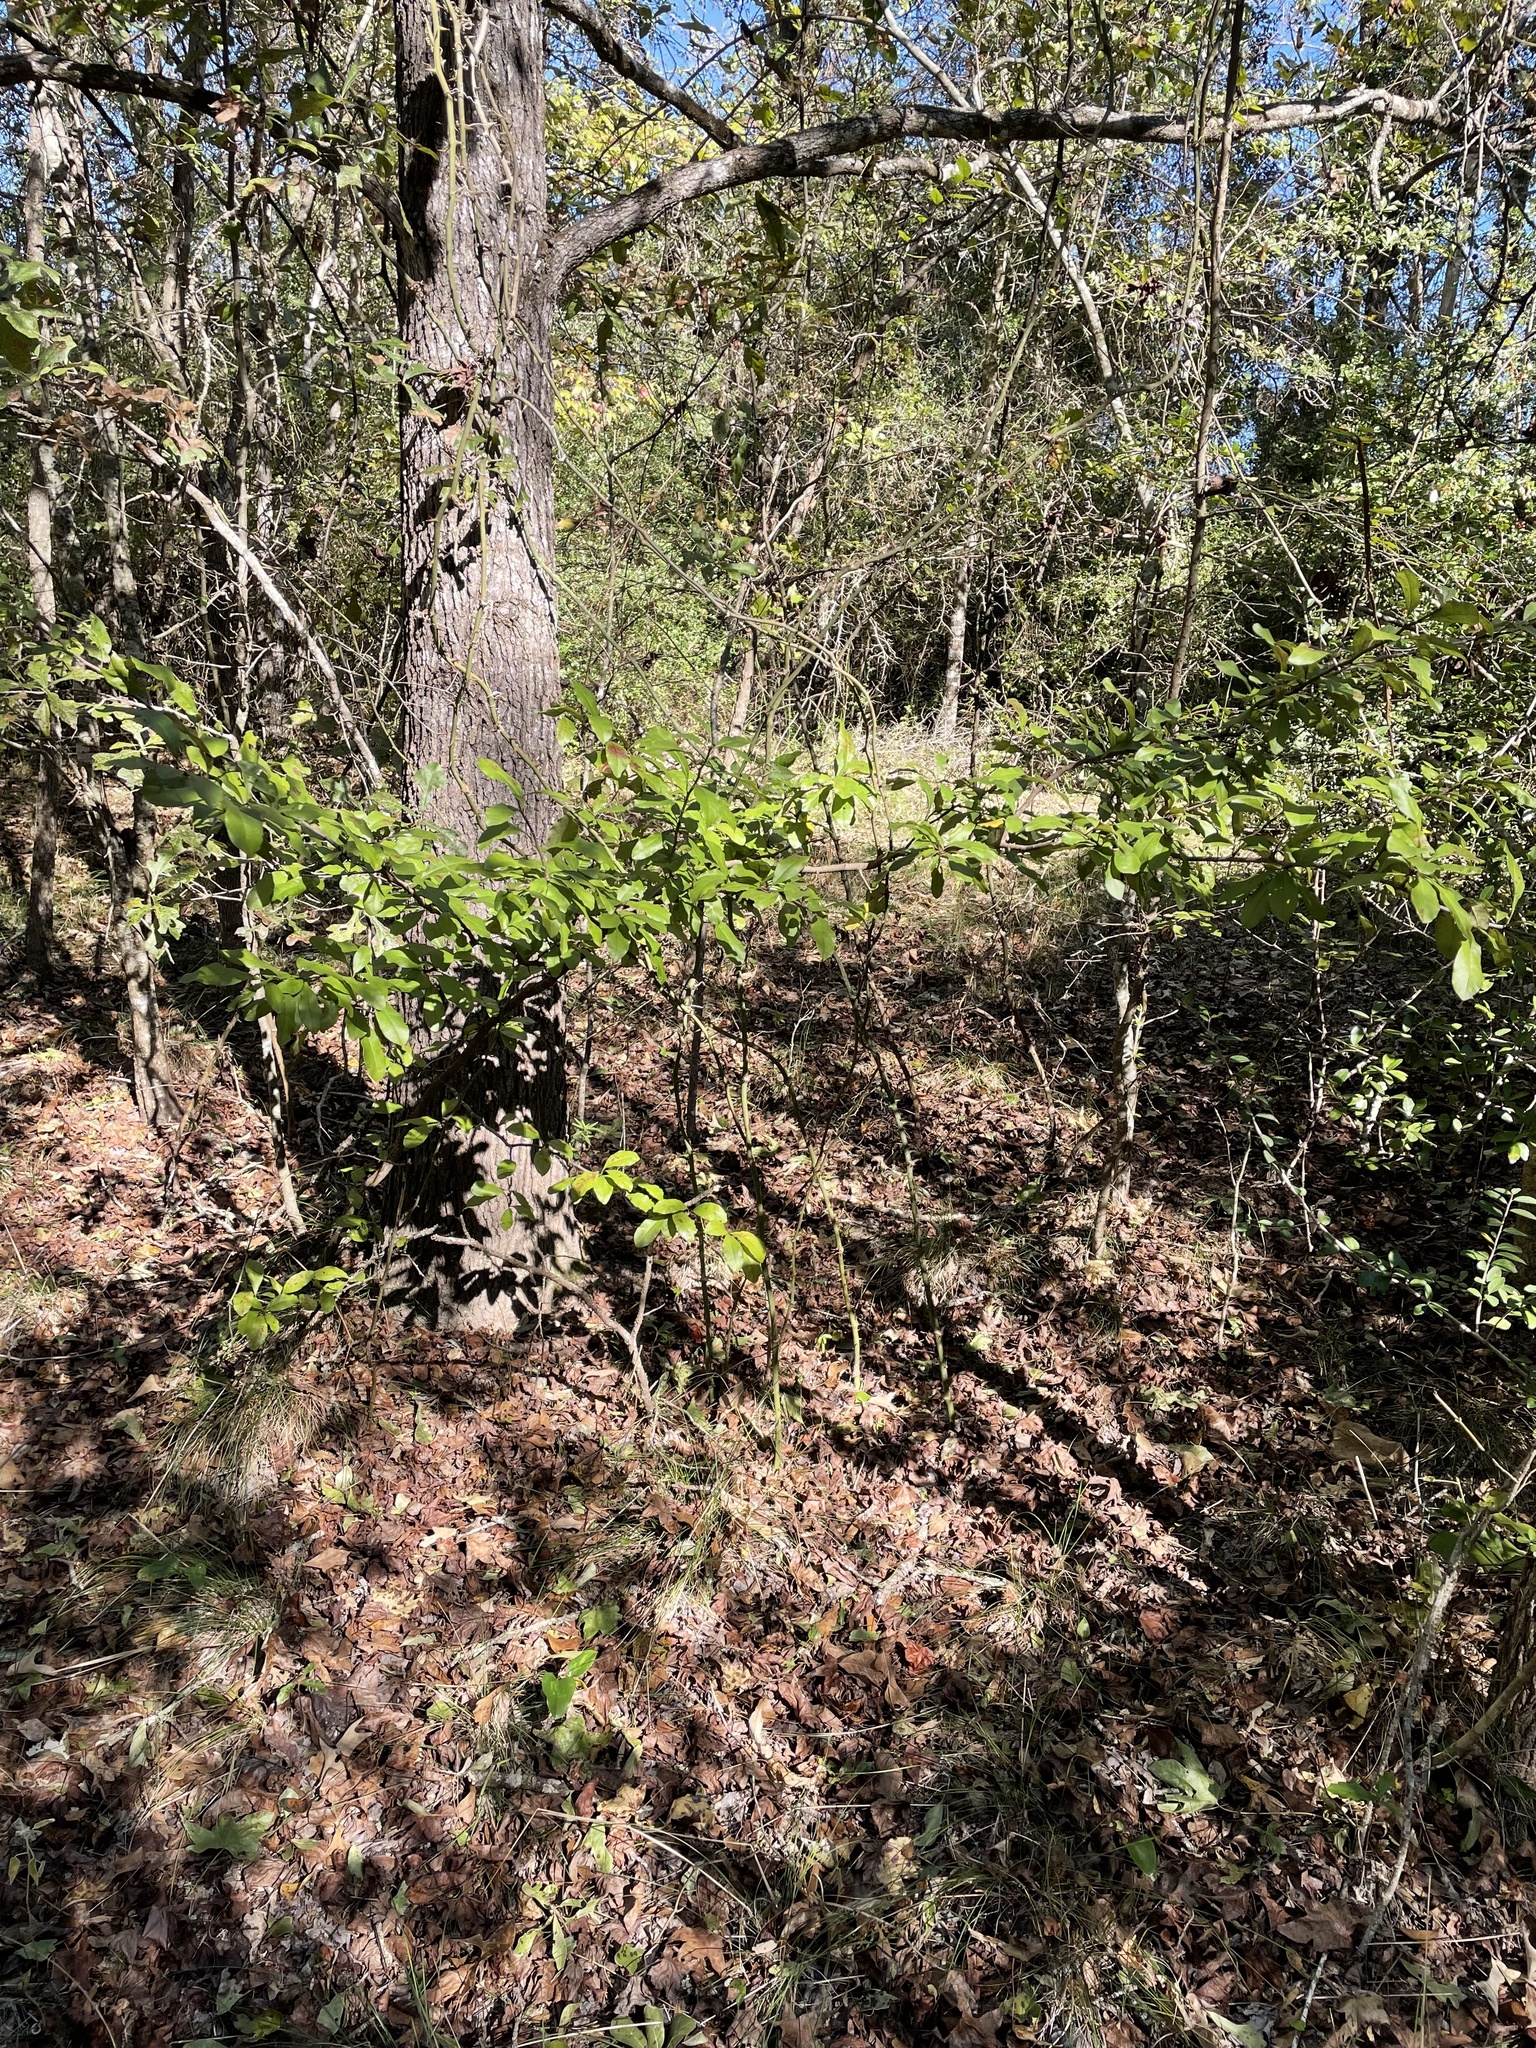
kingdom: Plantae
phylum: Tracheophyta
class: Magnoliopsida
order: Ericales
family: Sapotaceae
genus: Sideroxylon
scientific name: Sideroxylon lanuginosum
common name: Chittamwood
